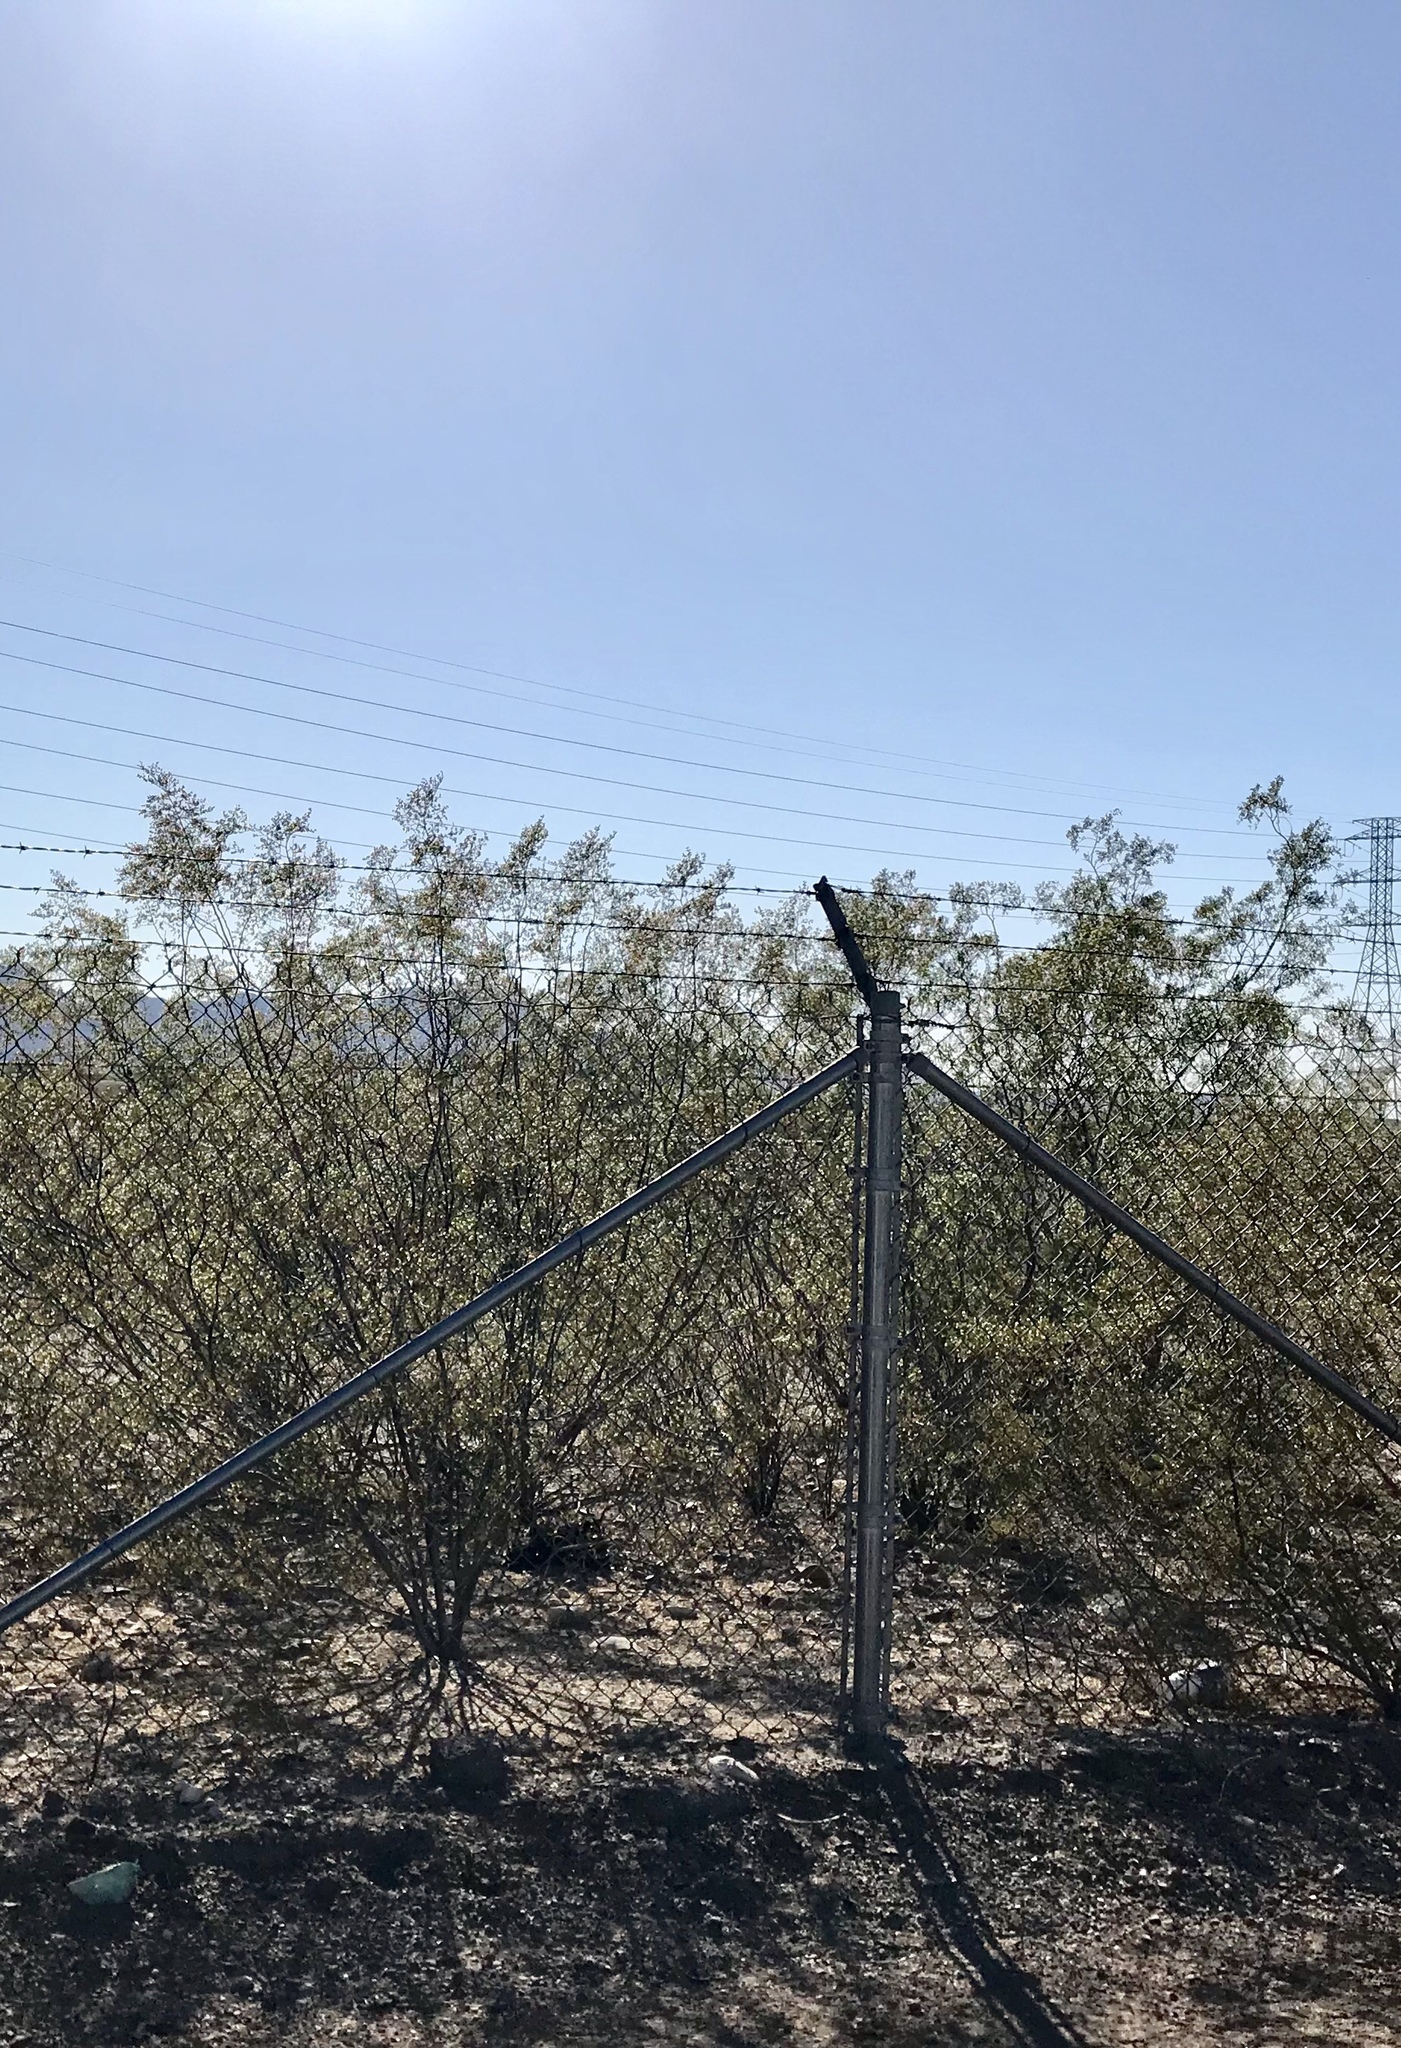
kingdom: Plantae
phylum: Tracheophyta
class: Magnoliopsida
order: Zygophyllales
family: Zygophyllaceae
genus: Larrea
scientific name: Larrea tridentata
